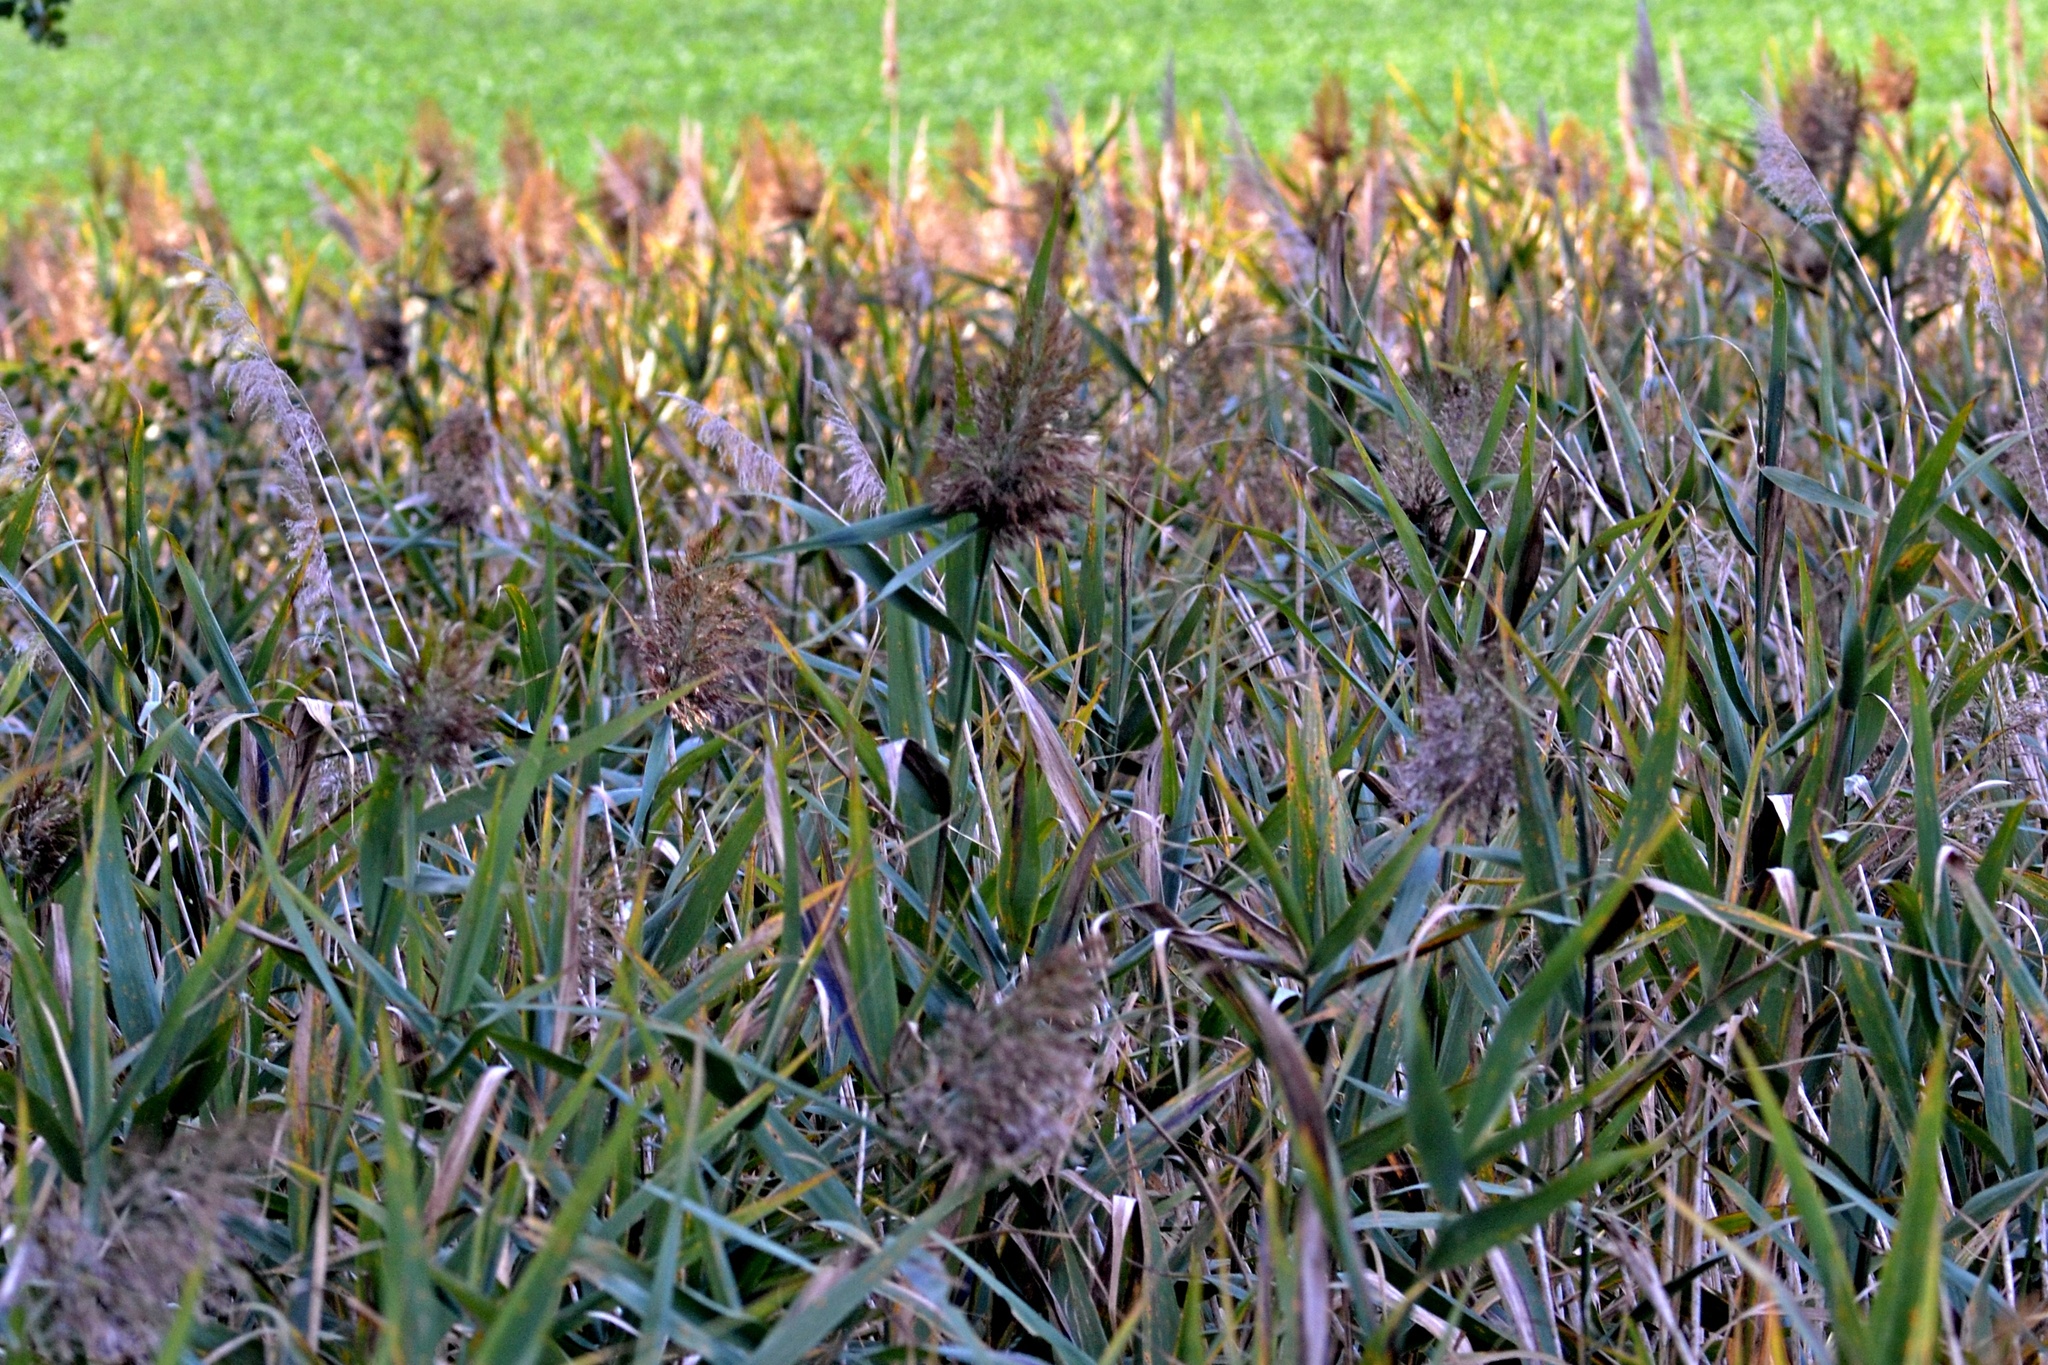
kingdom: Plantae
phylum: Tracheophyta
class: Liliopsida
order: Poales
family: Poaceae
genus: Phragmites
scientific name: Phragmites australis
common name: Common reed
